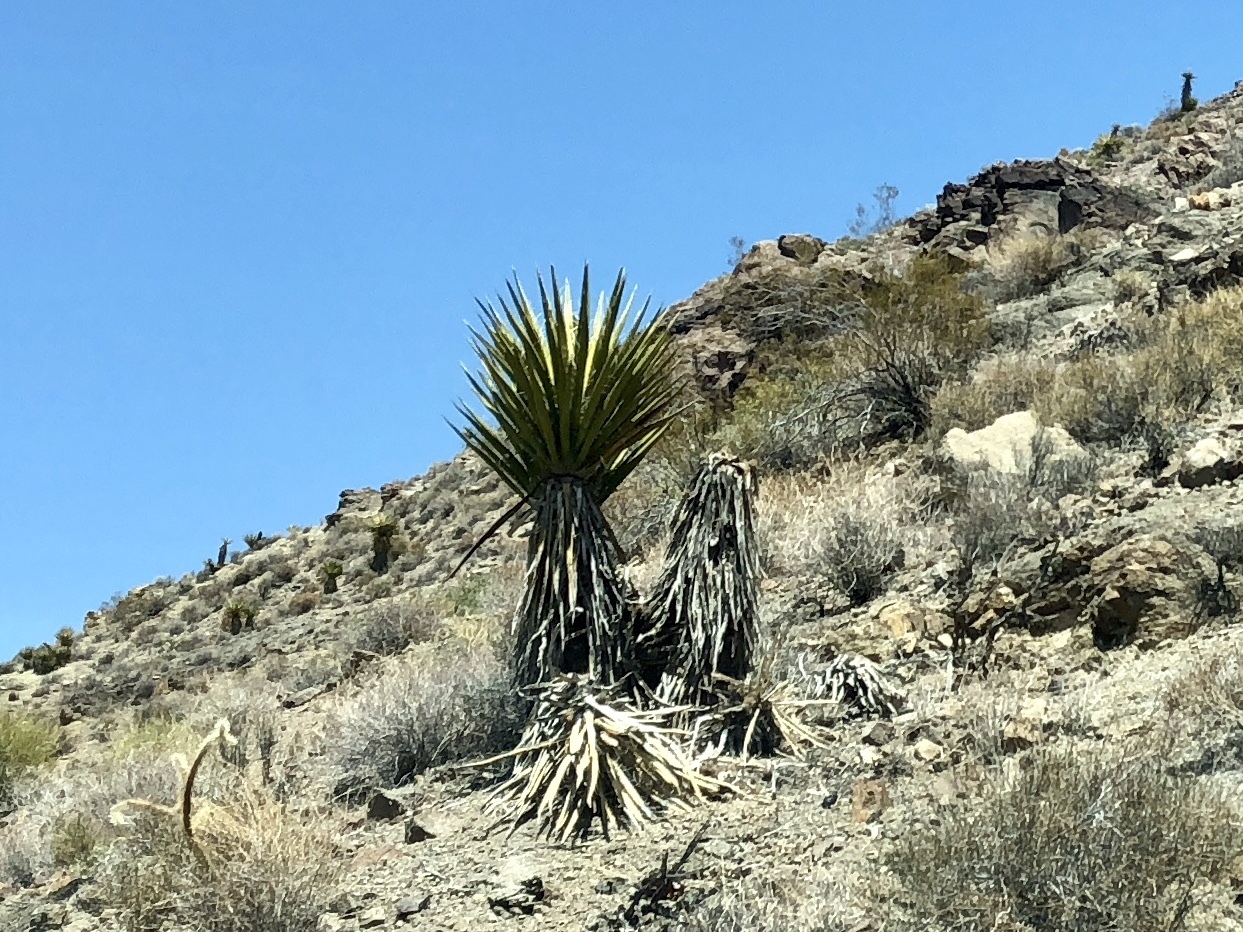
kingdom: Plantae
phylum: Tracheophyta
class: Liliopsida
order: Asparagales
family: Asparagaceae
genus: Yucca
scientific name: Yucca schidigera
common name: Mojave yucca
